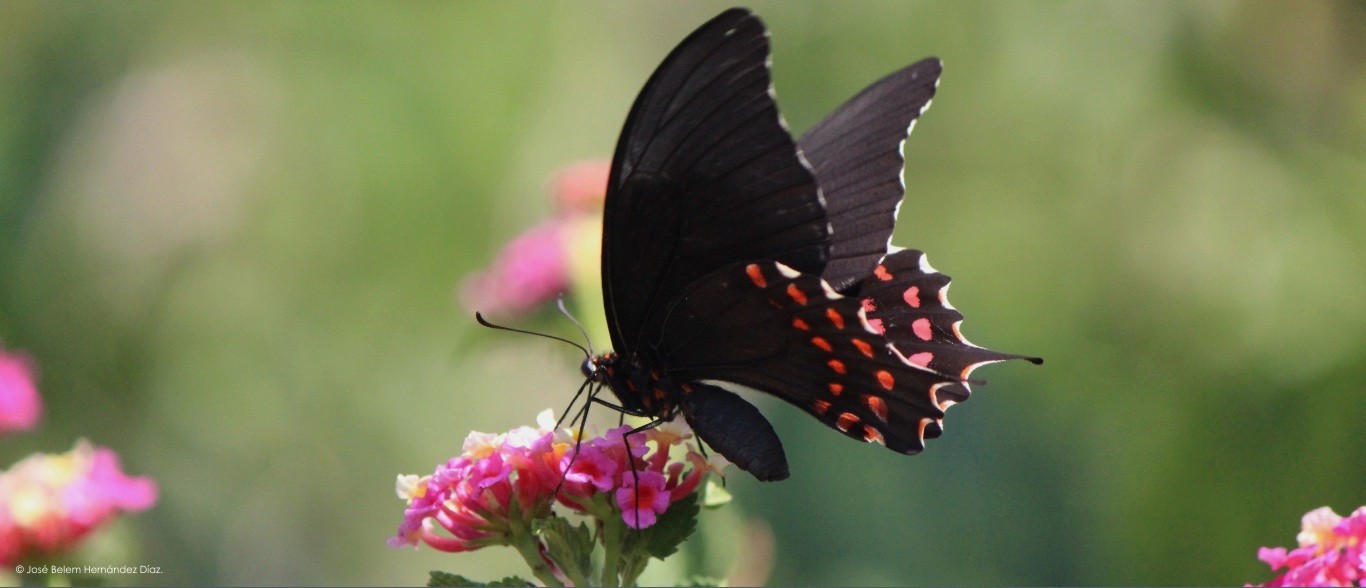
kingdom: Animalia
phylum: Arthropoda
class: Insecta
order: Lepidoptera
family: Papilionidae
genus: Heraclides
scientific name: Heraclides rogeri
